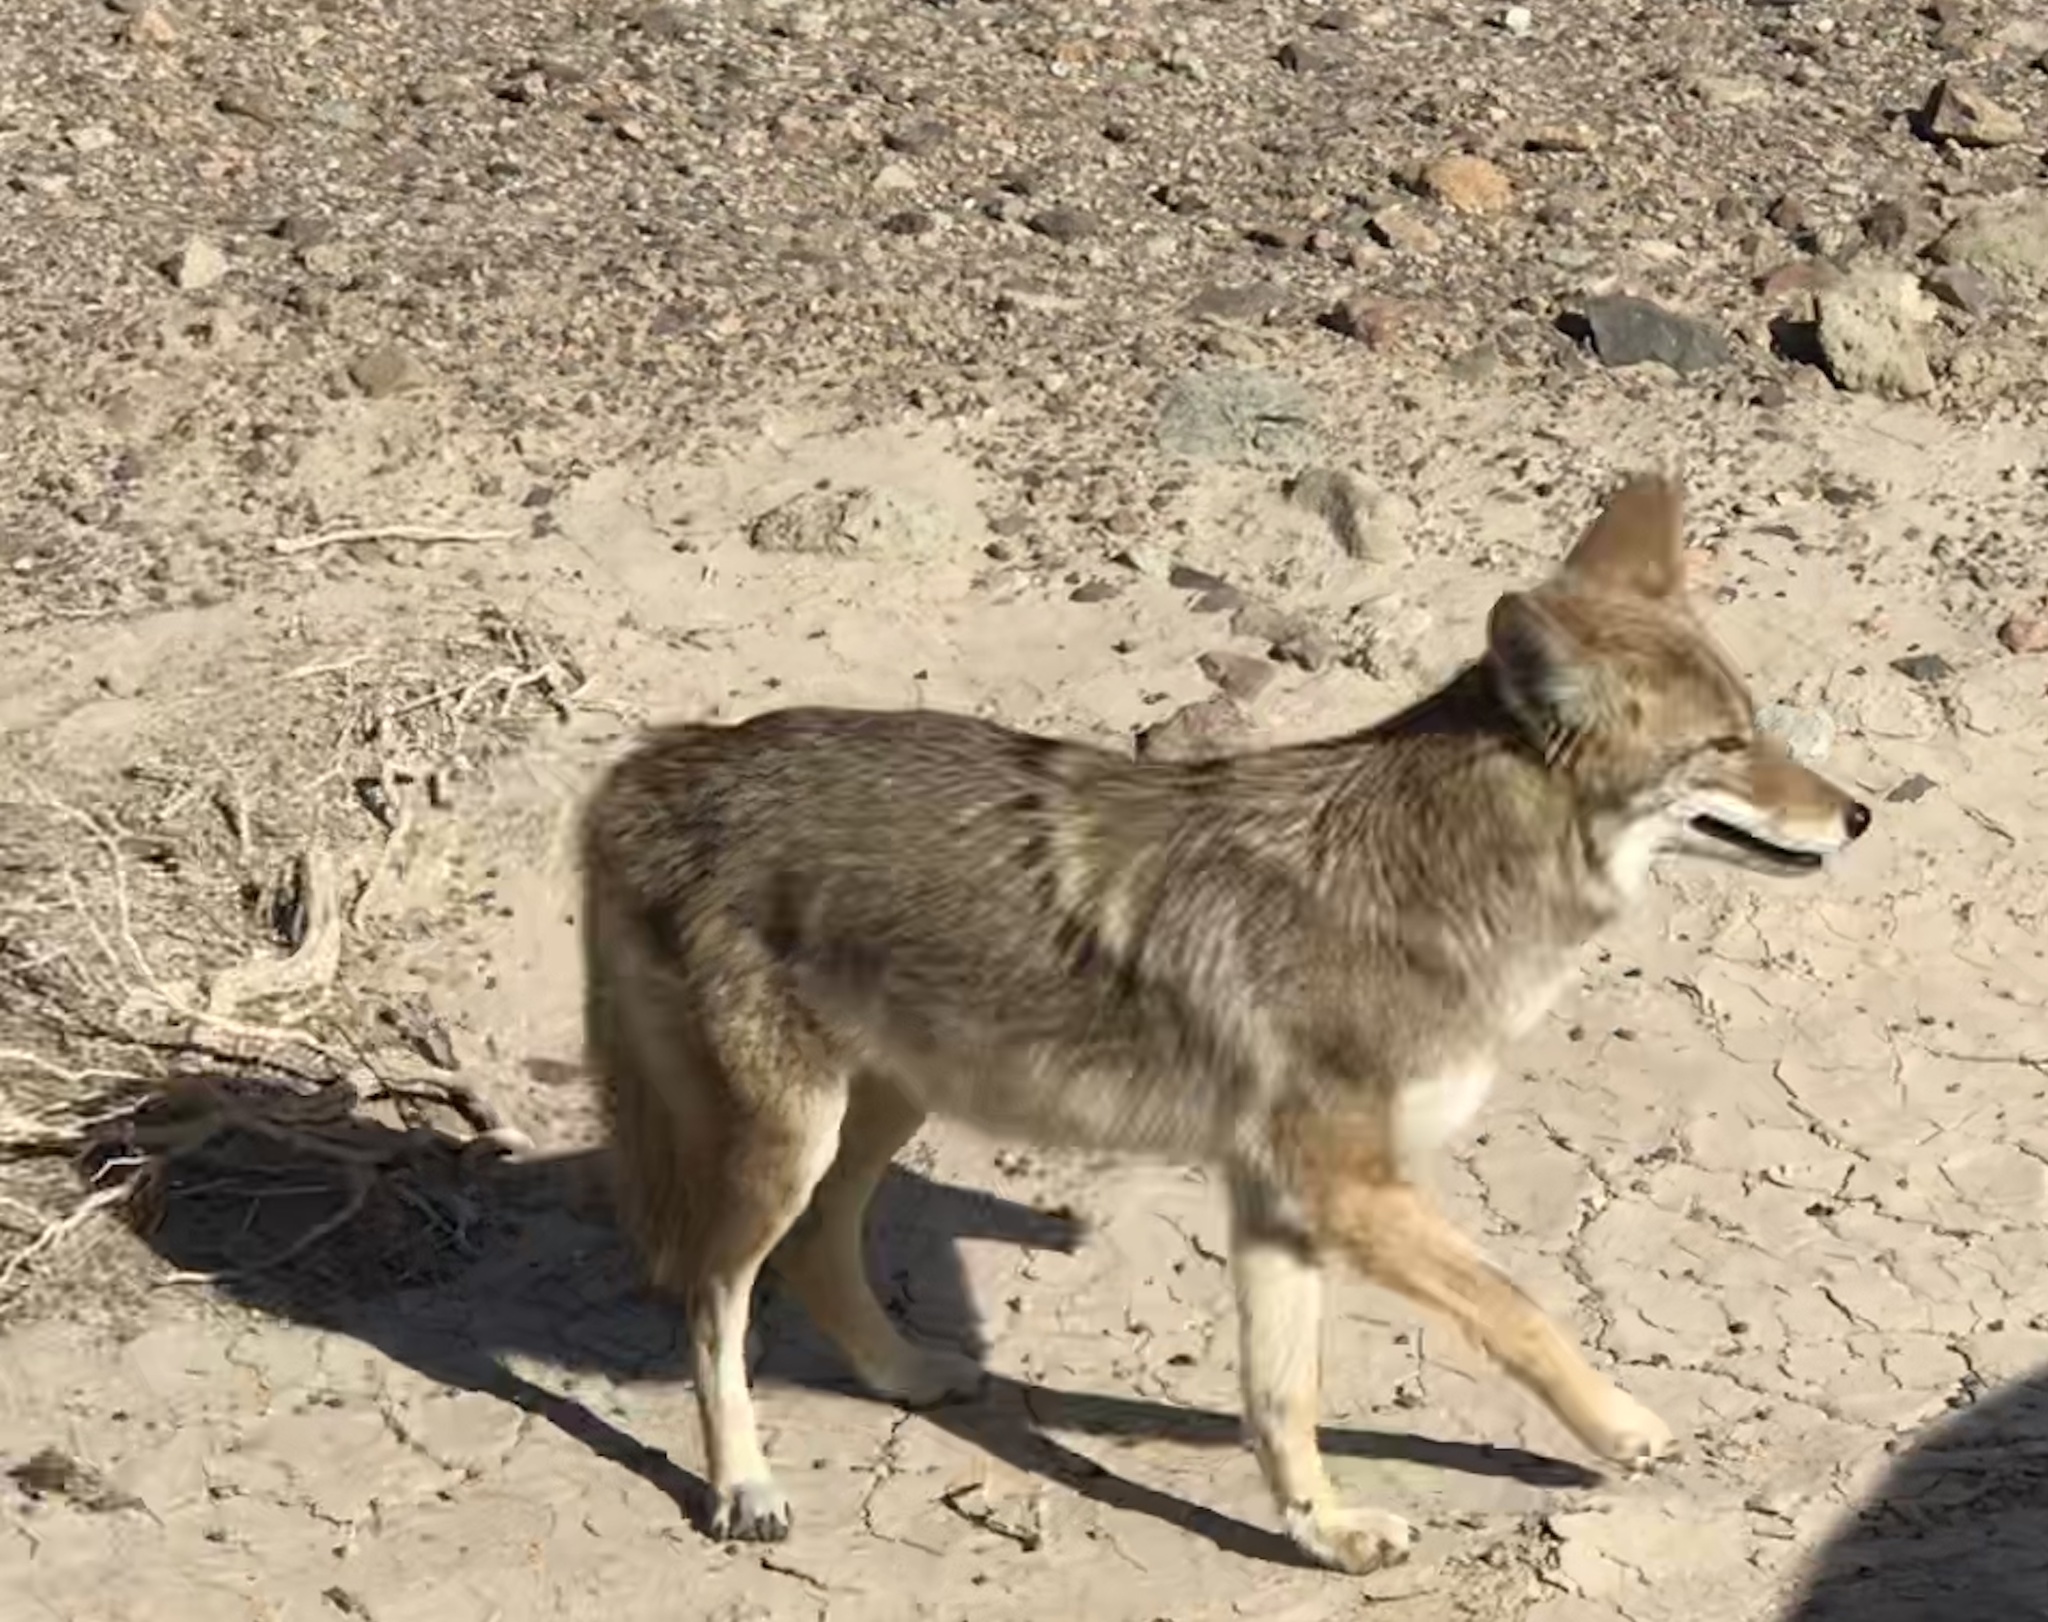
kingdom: Animalia
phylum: Chordata
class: Mammalia
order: Carnivora
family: Canidae
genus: Canis
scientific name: Canis latrans
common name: Coyote
